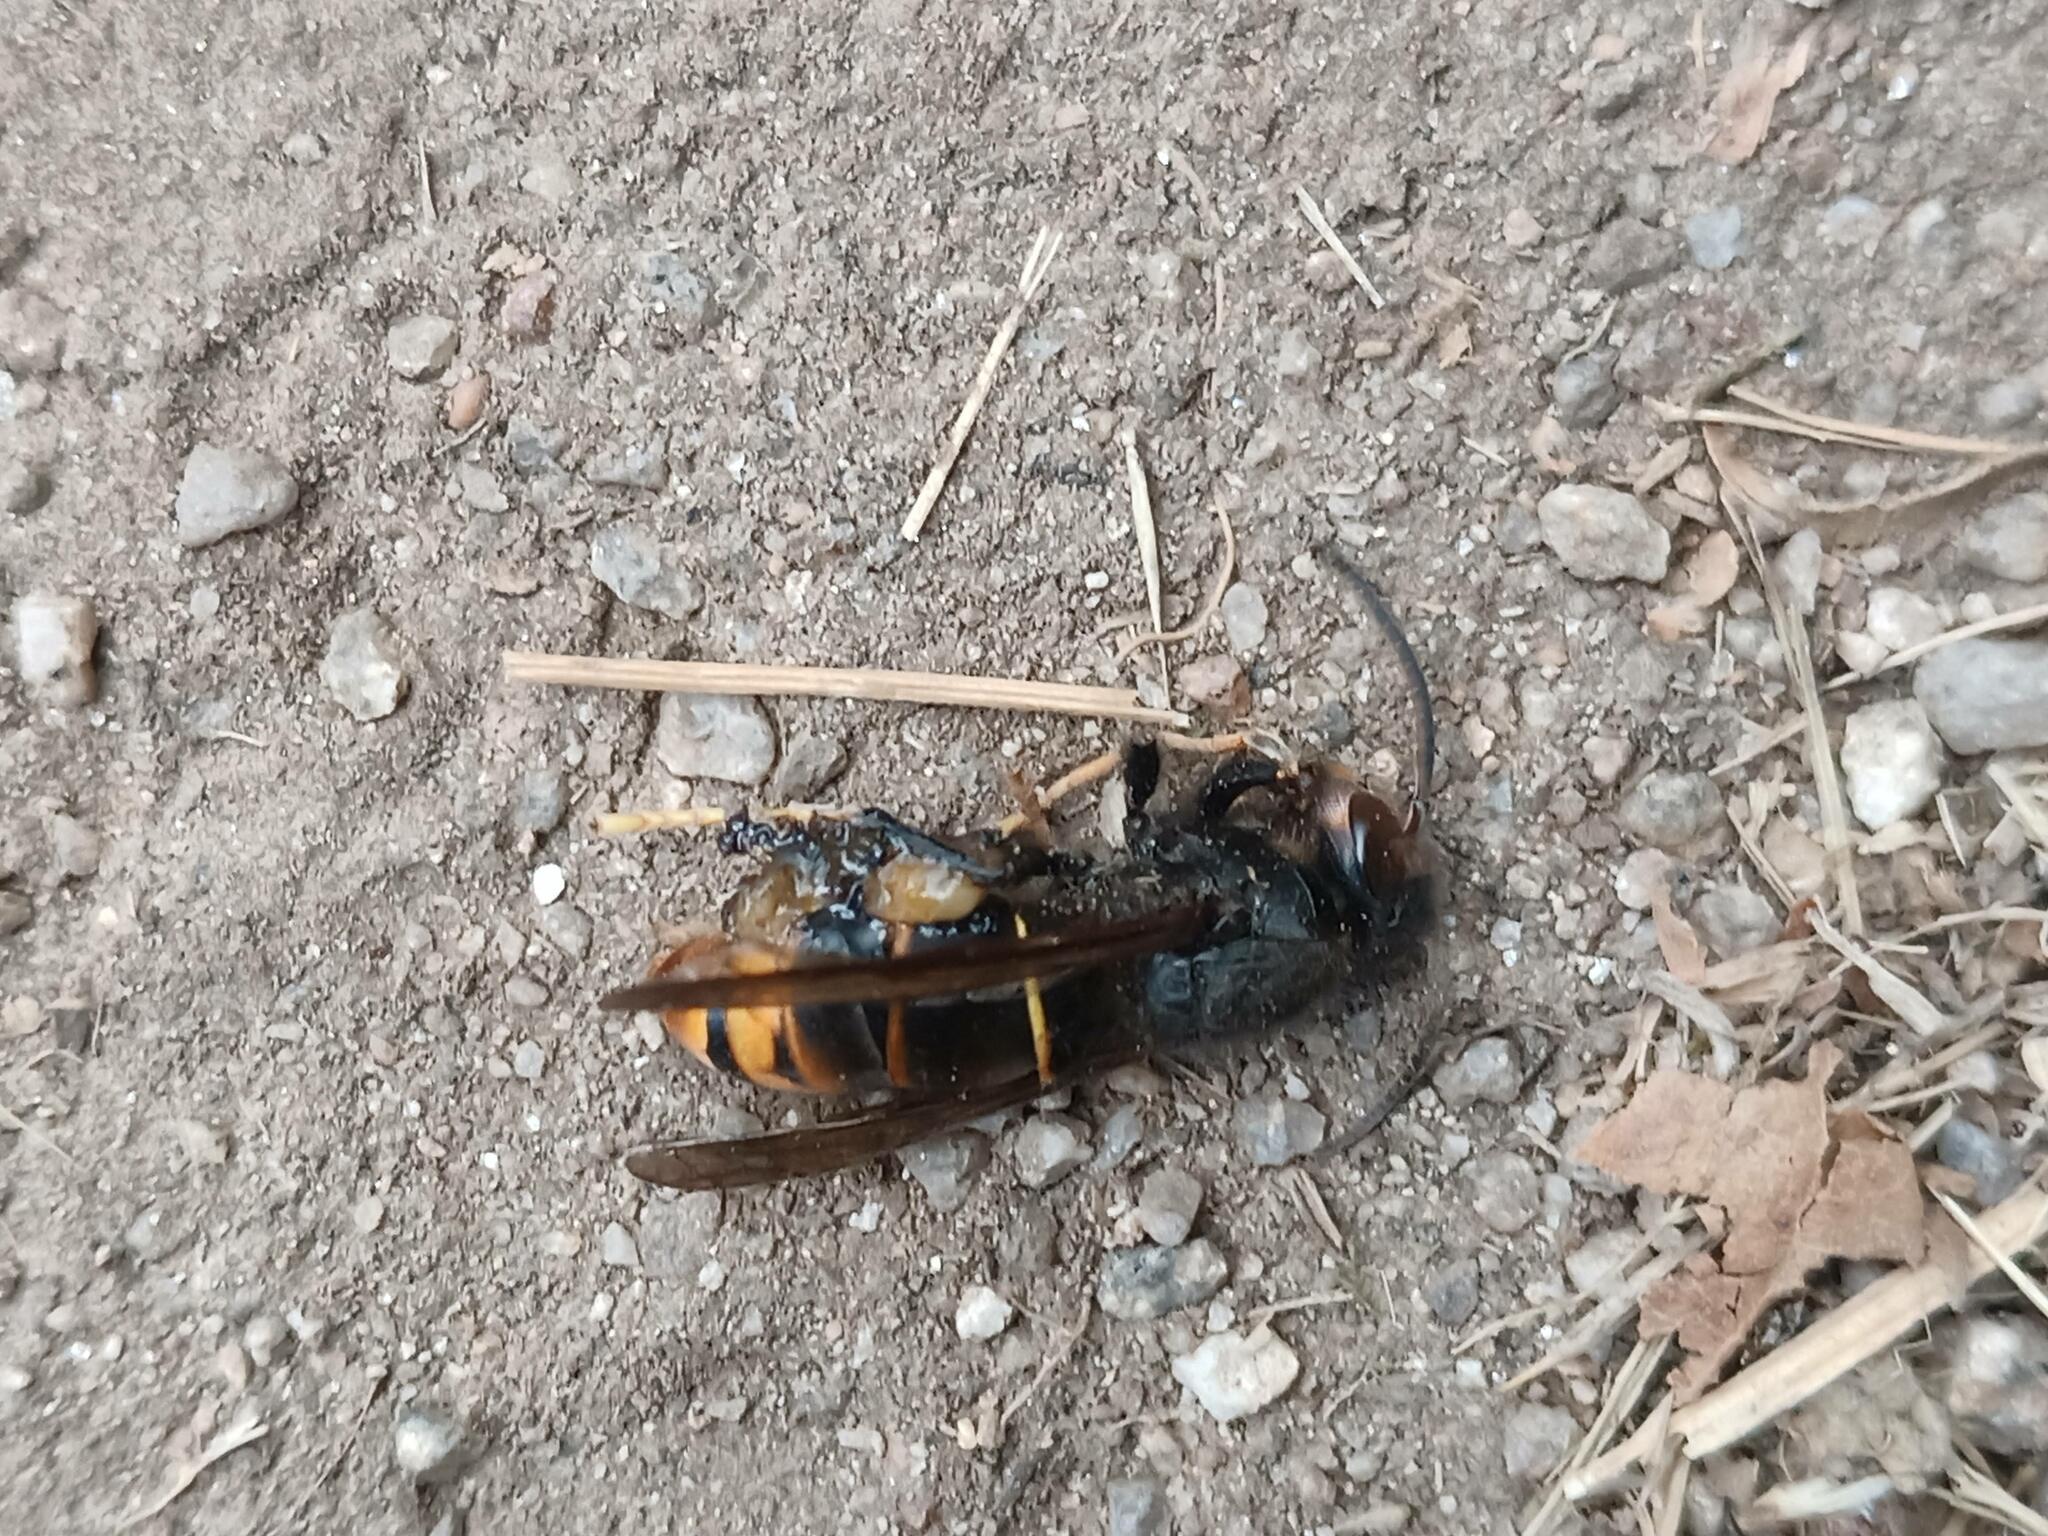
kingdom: Animalia
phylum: Arthropoda
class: Insecta
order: Hymenoptera
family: Vespidae
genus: Vespa
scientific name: Vespa velutina
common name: Asian hornet
